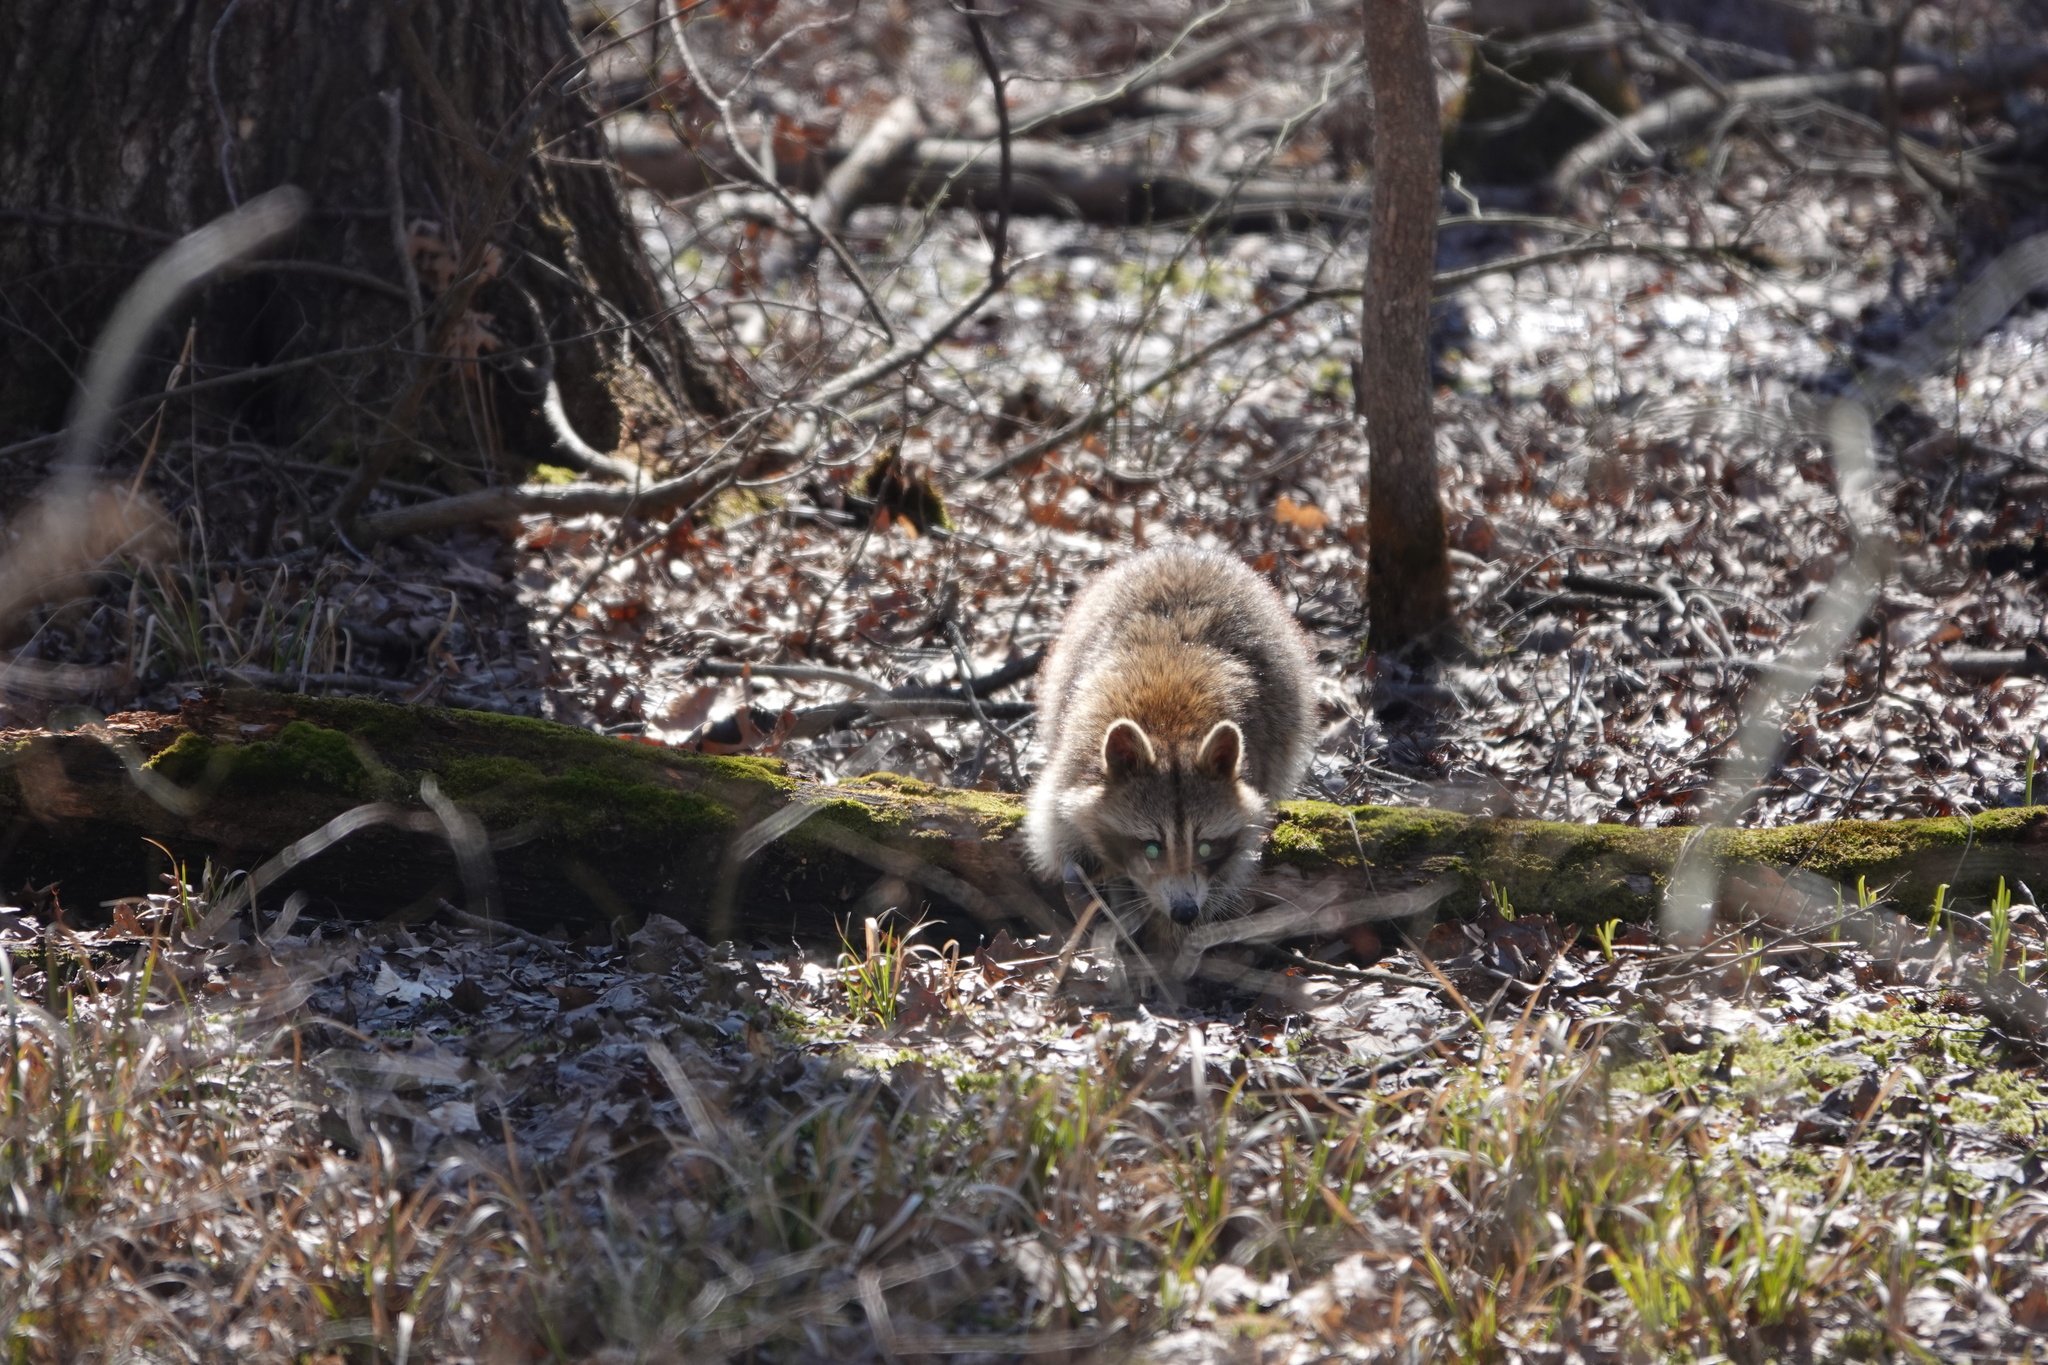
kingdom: Animalia
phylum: Chordata
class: Mammalia
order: Carnivora
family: Procyonidae
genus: Procyon
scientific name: Procyon lotor
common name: Raccoon
